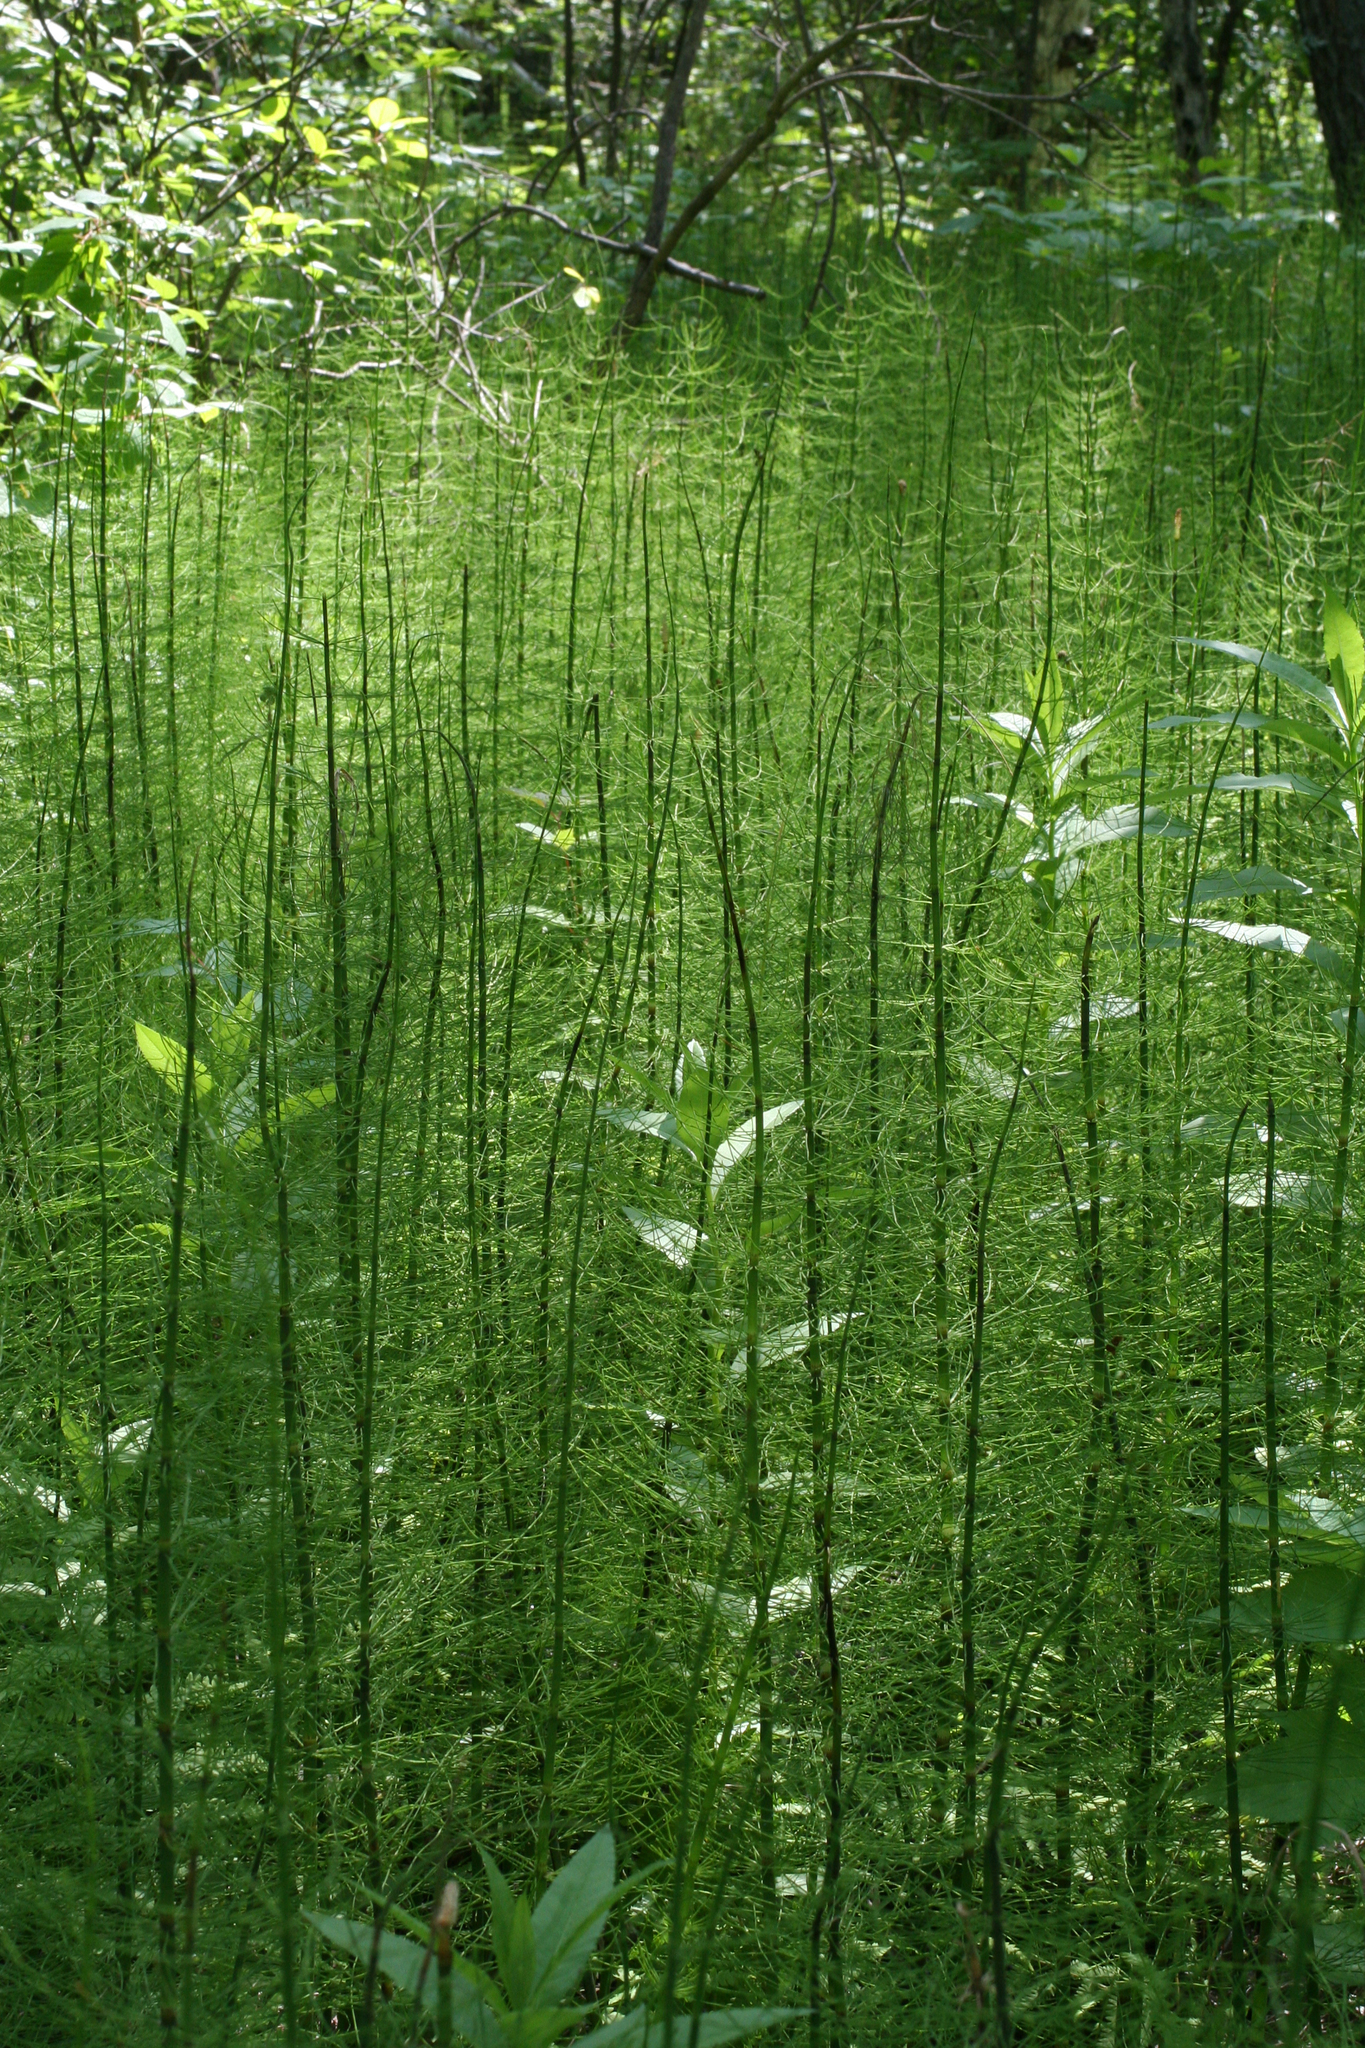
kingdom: Plantae
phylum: Tracheophyta
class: Polypodiopsida
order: Equisetales
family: Equisetaceae
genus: Equisetum
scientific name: Equisetum fluviatile
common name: Water horsetail
